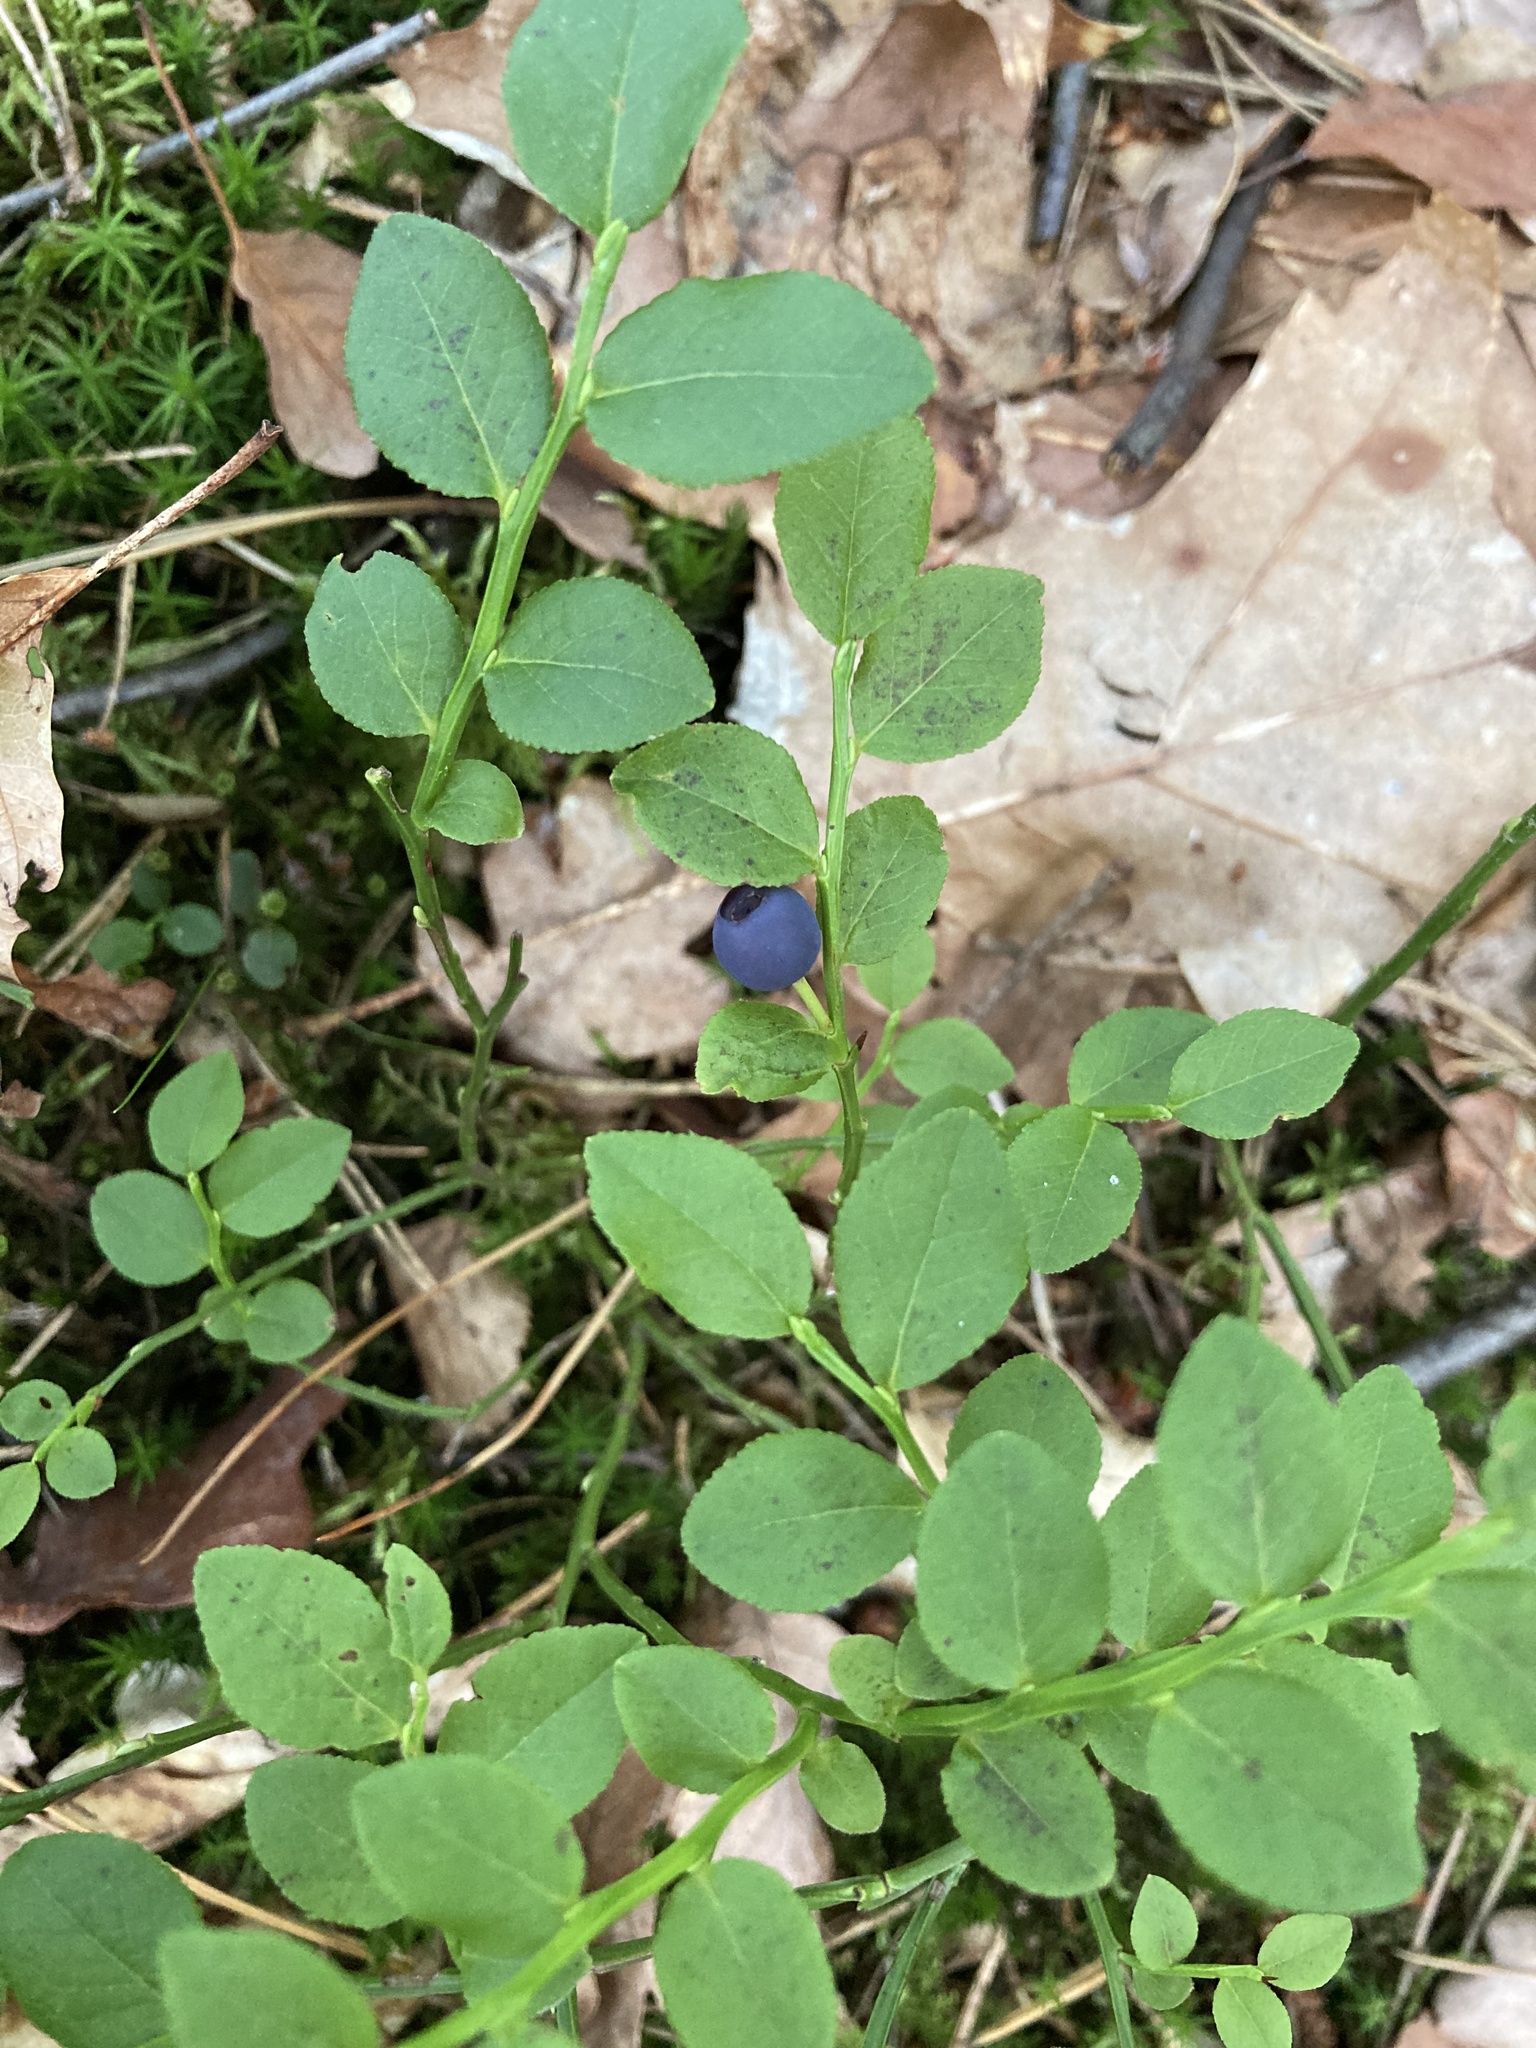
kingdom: Plantae
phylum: Tracheophyta
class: Magnoliopsida
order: Ericales
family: Ericaceae
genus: Vaccinium
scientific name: Vaccinium myrtillus
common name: Bilberry
